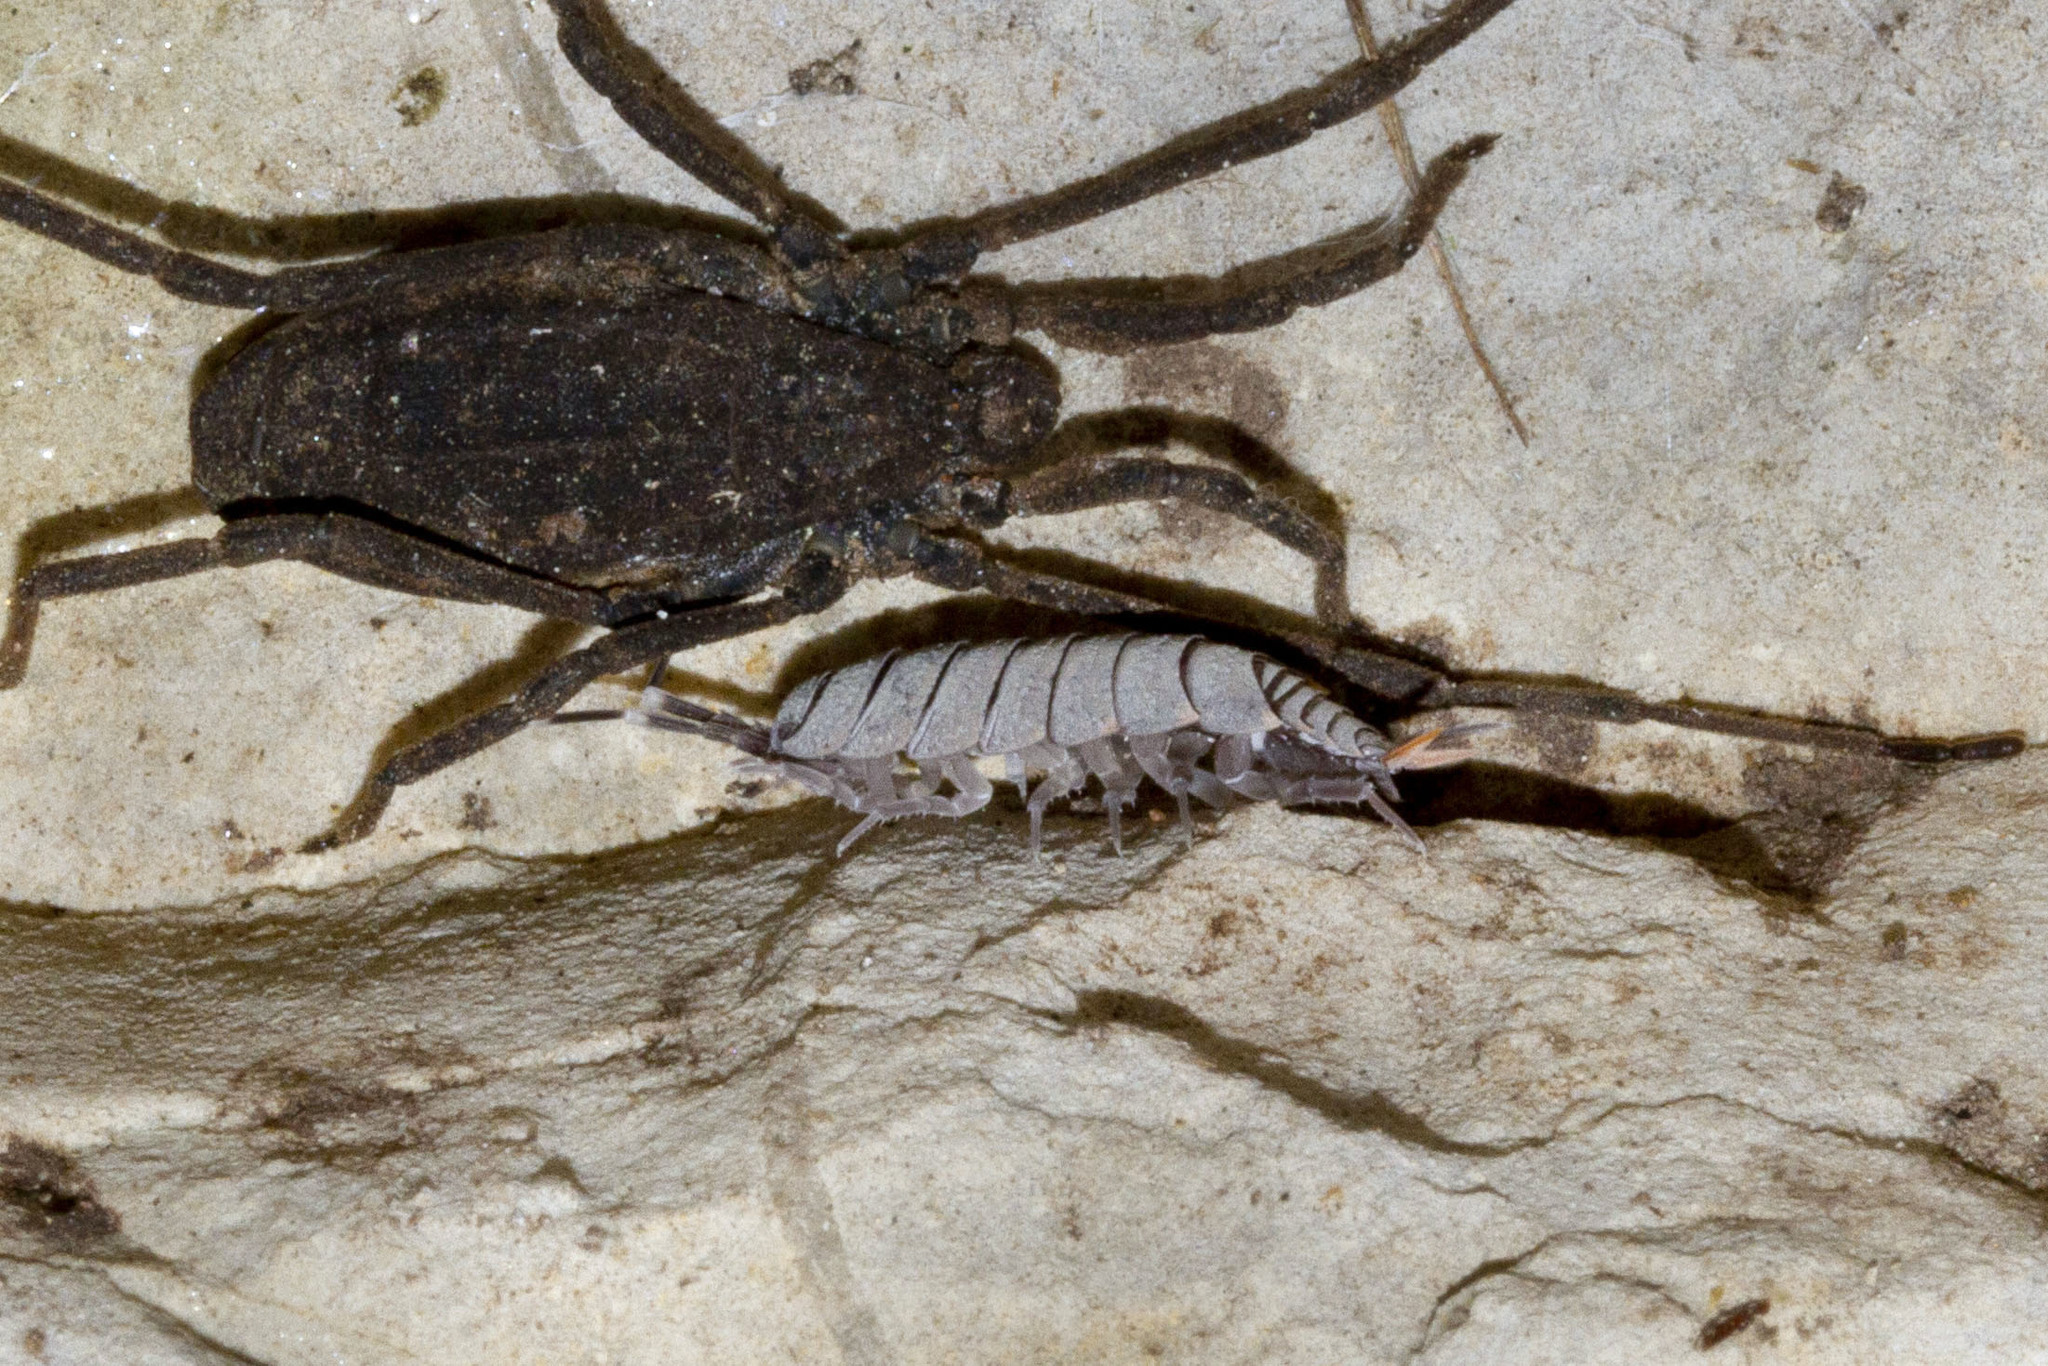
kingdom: Animalia
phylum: Arthropoda
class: Malacostraca
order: Isopoda
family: Porcellionidae
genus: Porcellionides
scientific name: Porcellionides pruinosus
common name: Plum woodlouse
